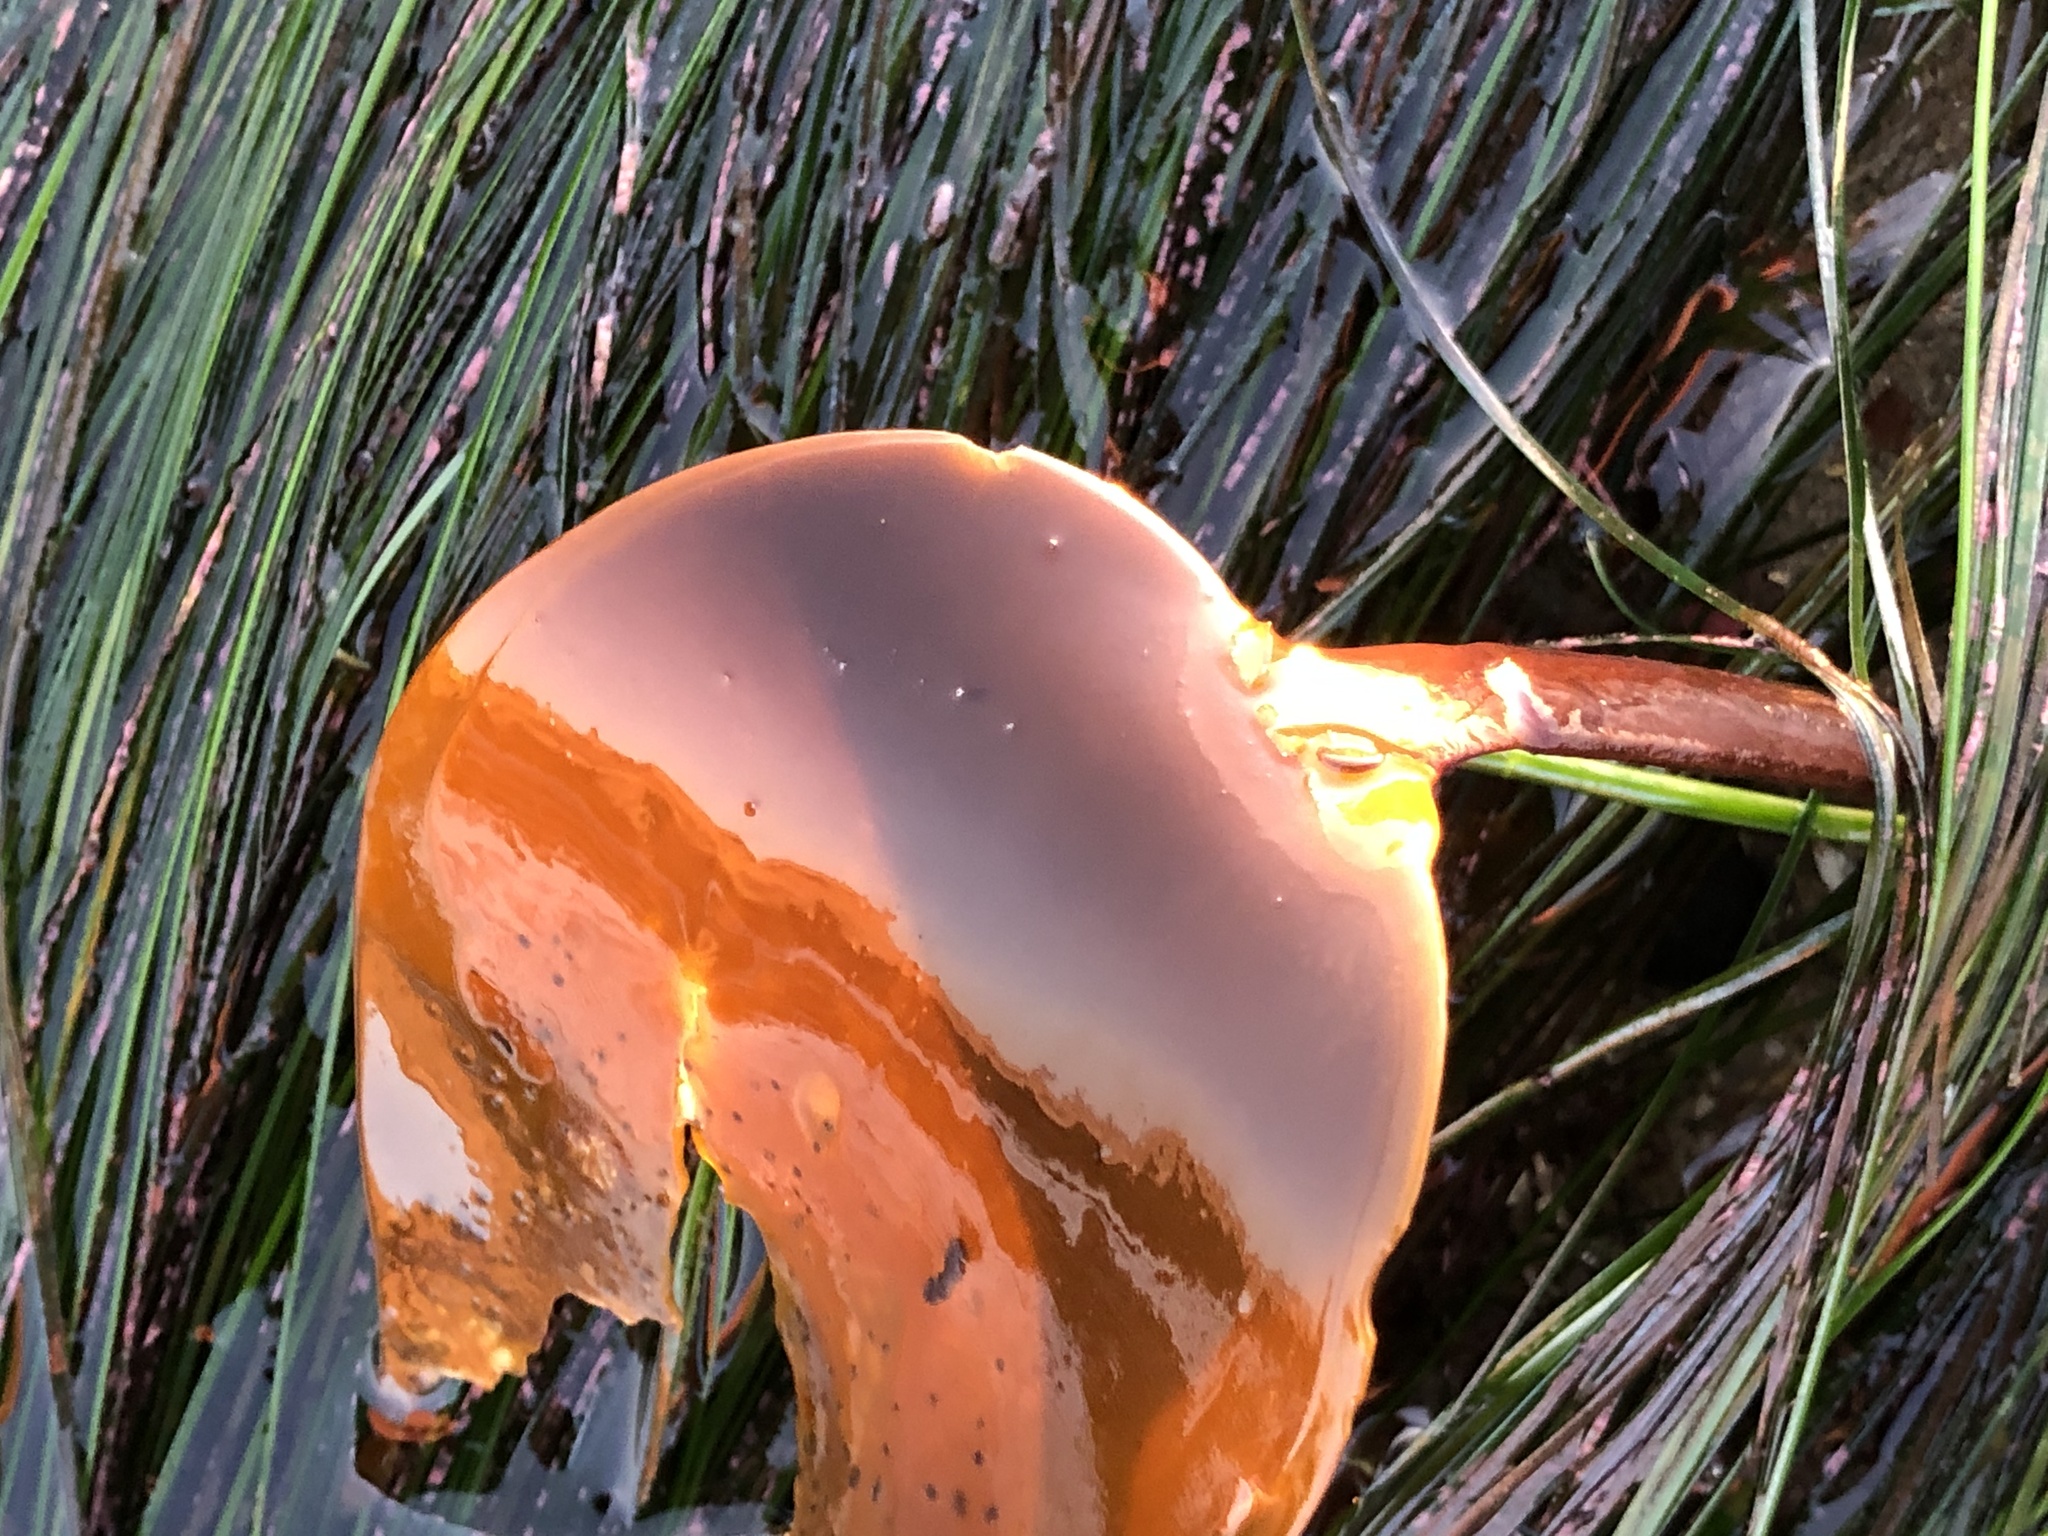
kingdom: Chromista
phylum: Ochrophyta
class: Phaeophyceae
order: Laminariales
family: Laminariaceae
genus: Laminaria
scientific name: Laminaria setchellii
